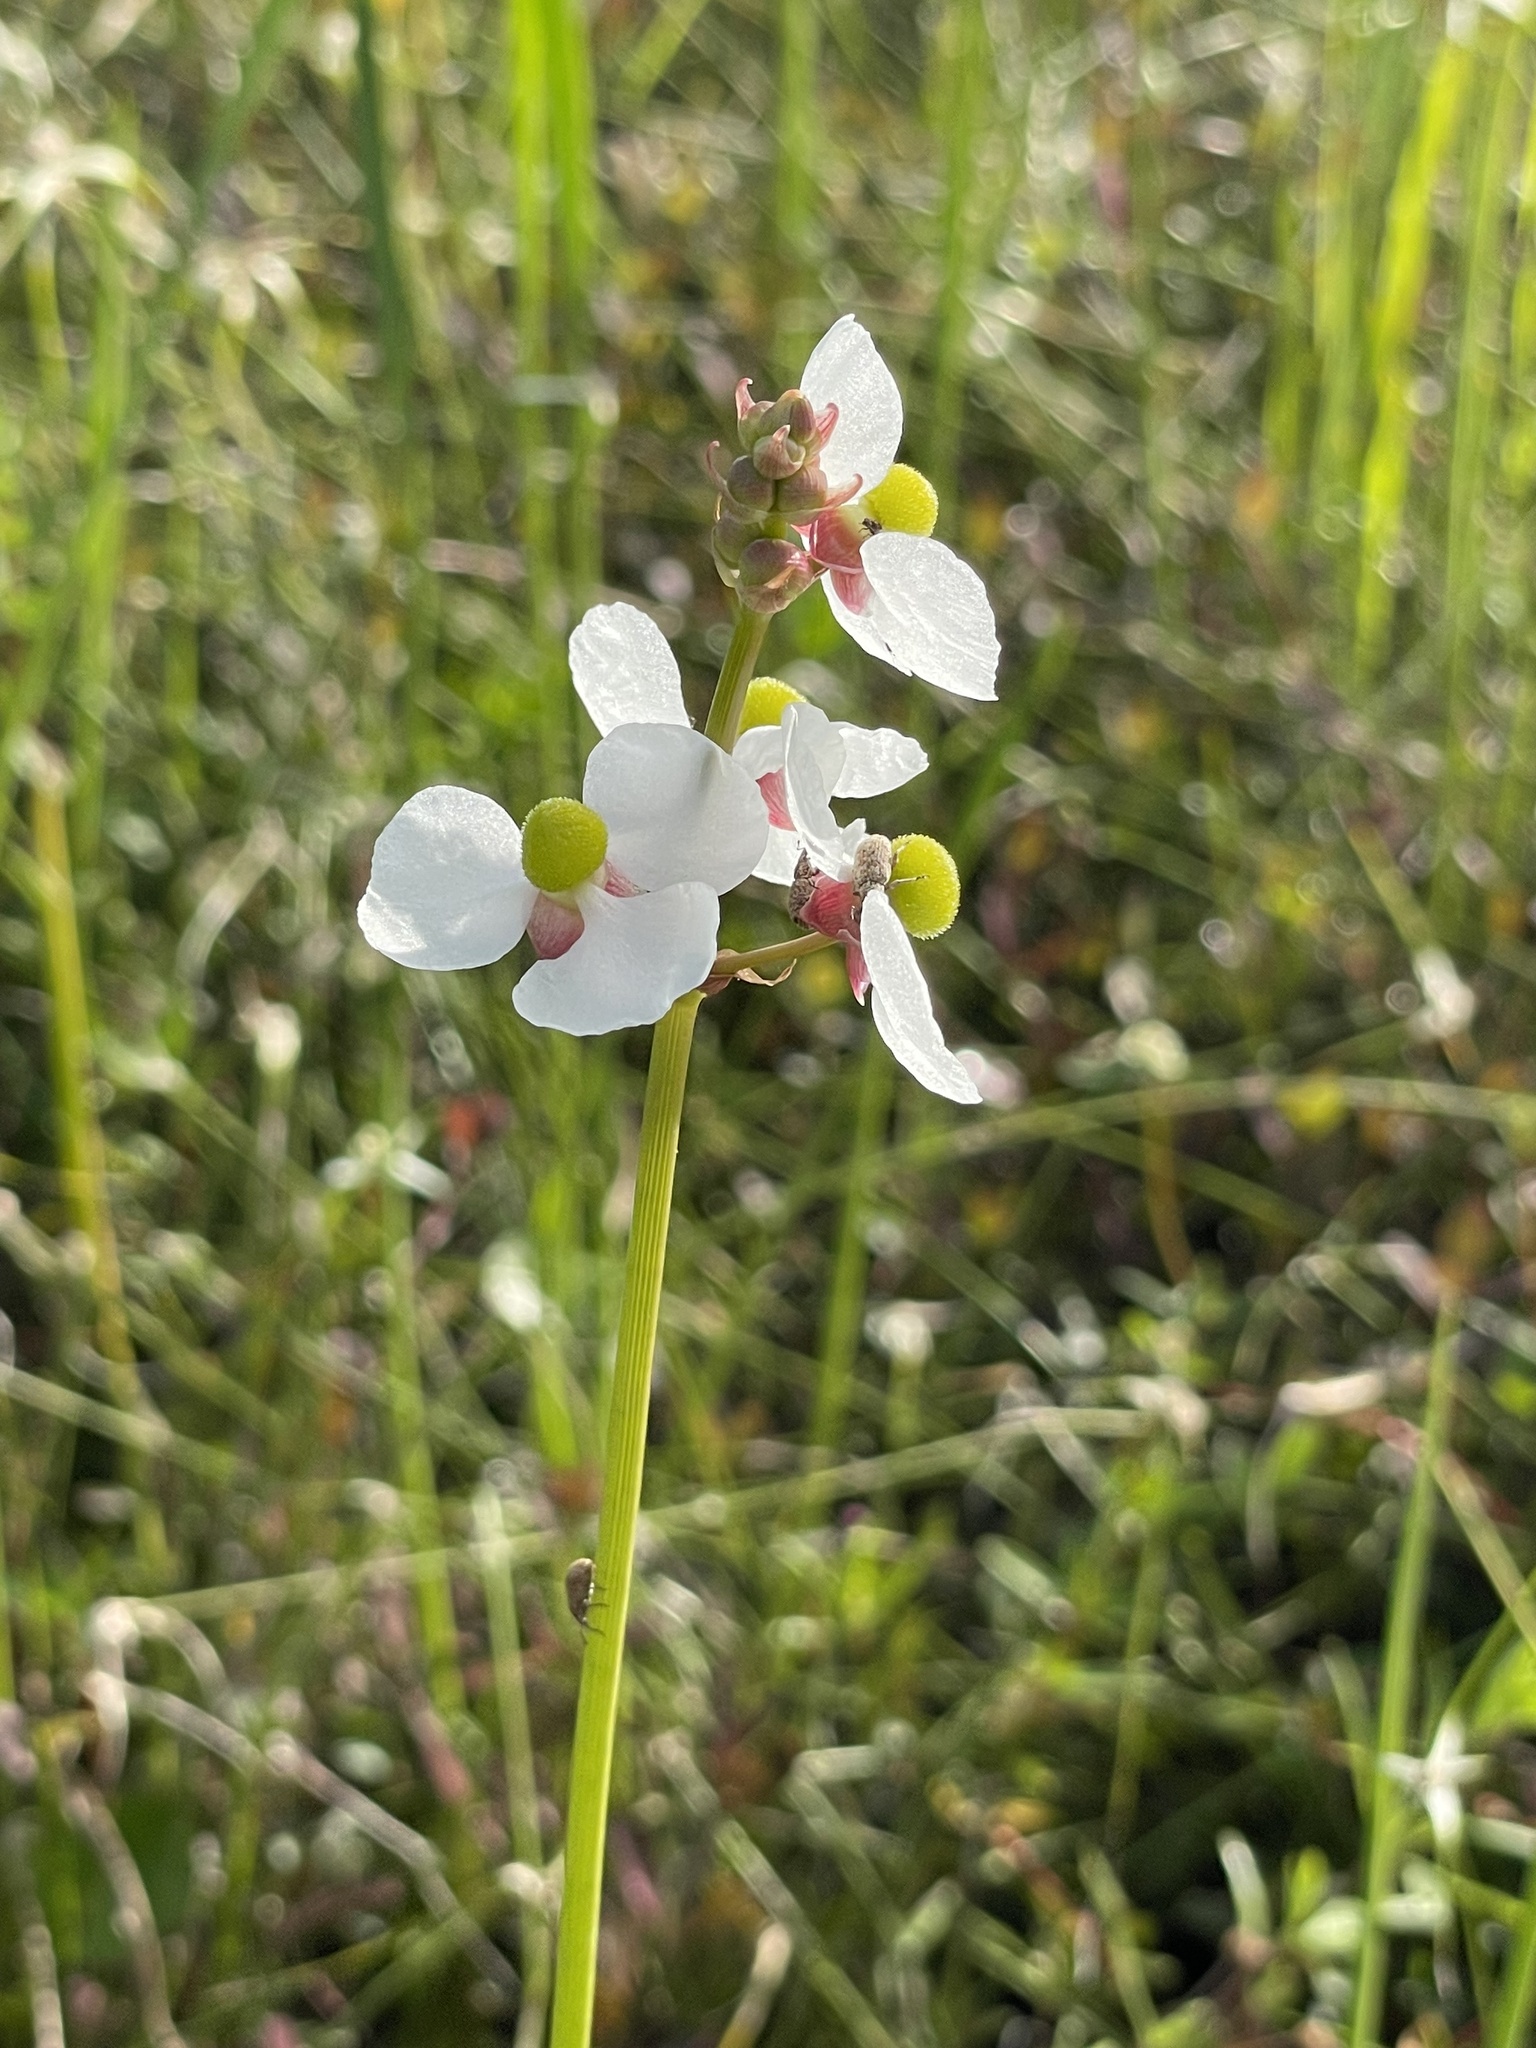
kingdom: Plantae
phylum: Tracheophyta
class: Liliopsida
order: Alismatales
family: Alismataceae
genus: Sagittaria
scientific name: Sagittaria lancifolia
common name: Lance-leaf arrowhead
